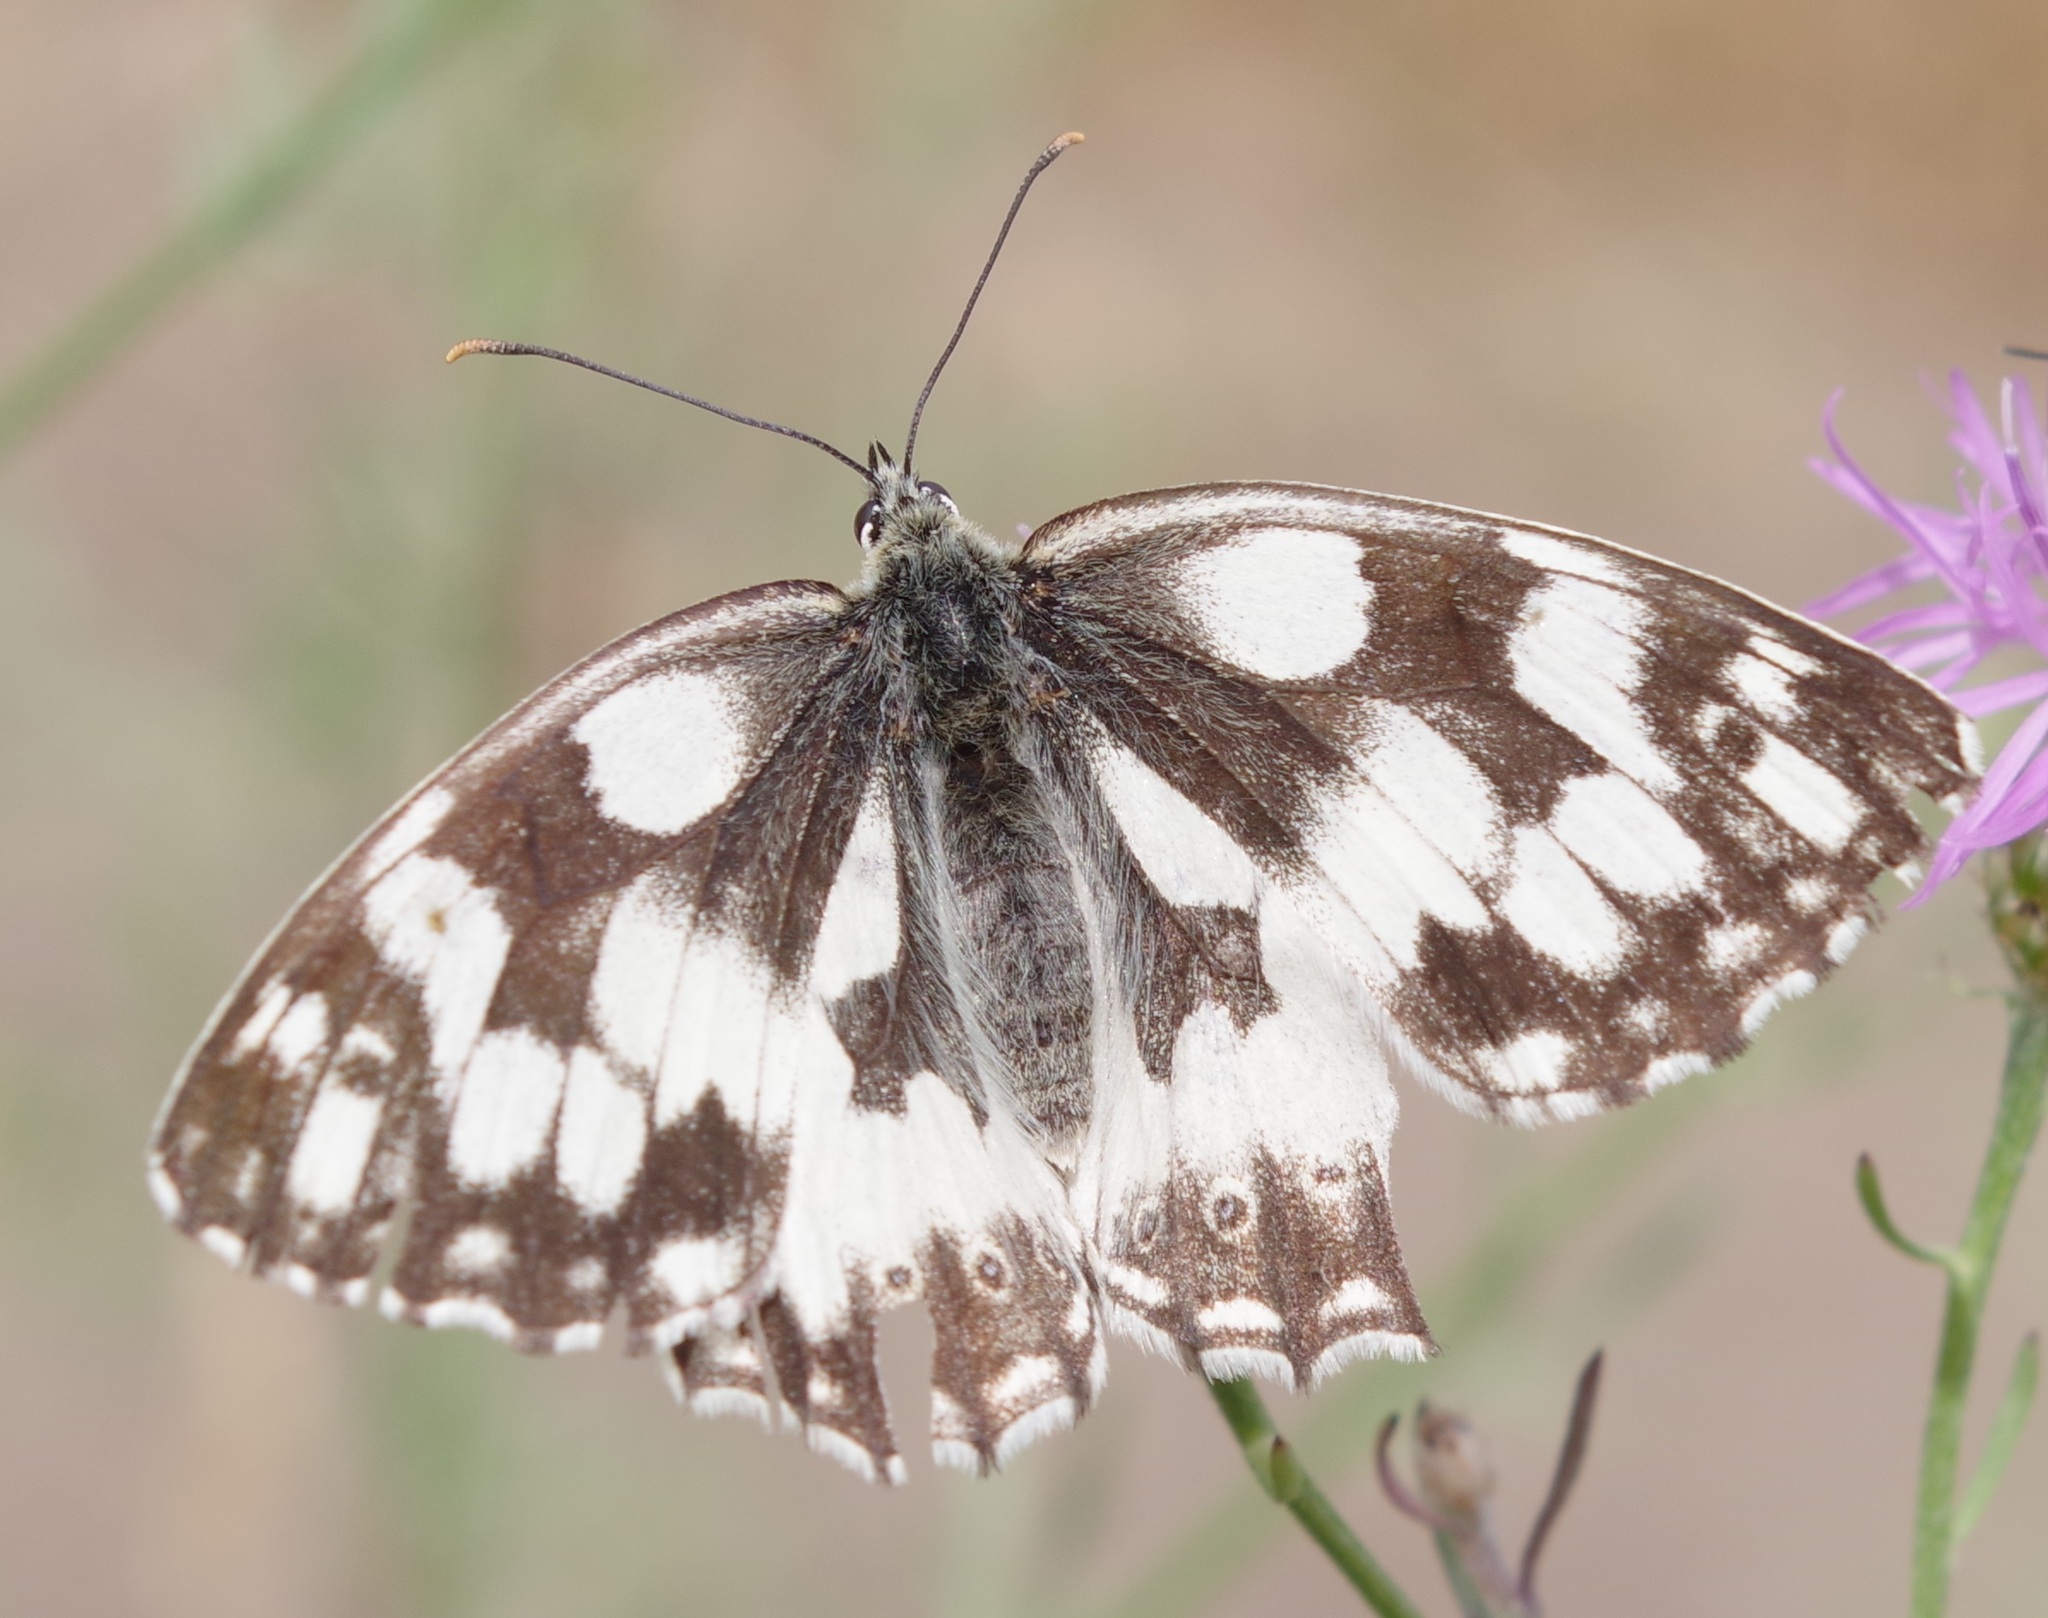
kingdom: Animalia
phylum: Arthropoda
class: Insecta
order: Lepidoptera
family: Nymphalidae
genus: Melanargia
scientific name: Melanargia galathea
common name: Marbled white
